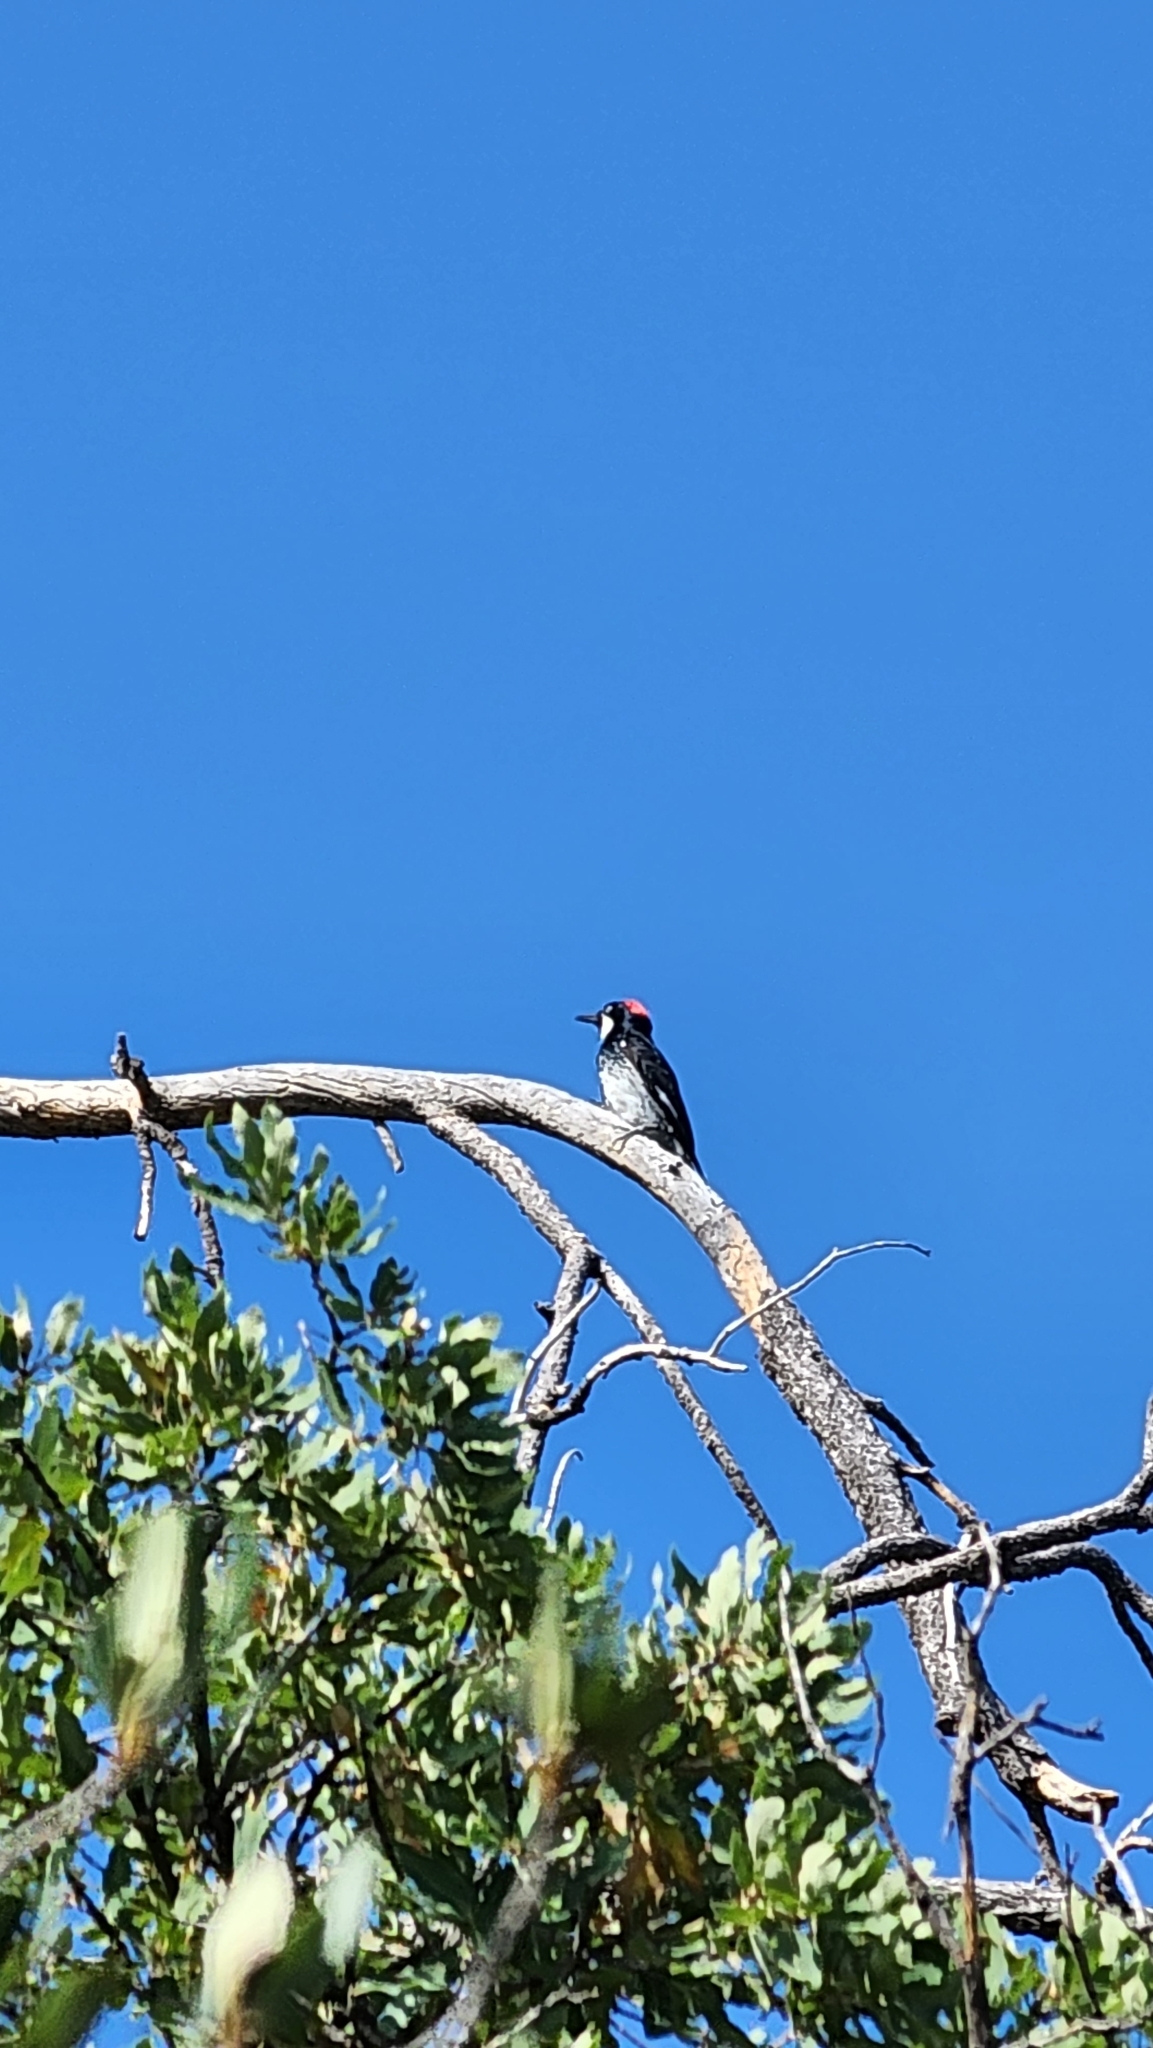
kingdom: Animalia
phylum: Chordata
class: Aves
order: Piciformes
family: Picidae
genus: Melanerpes
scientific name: Melanerpes formicivorus
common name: Acorn woodpecker
